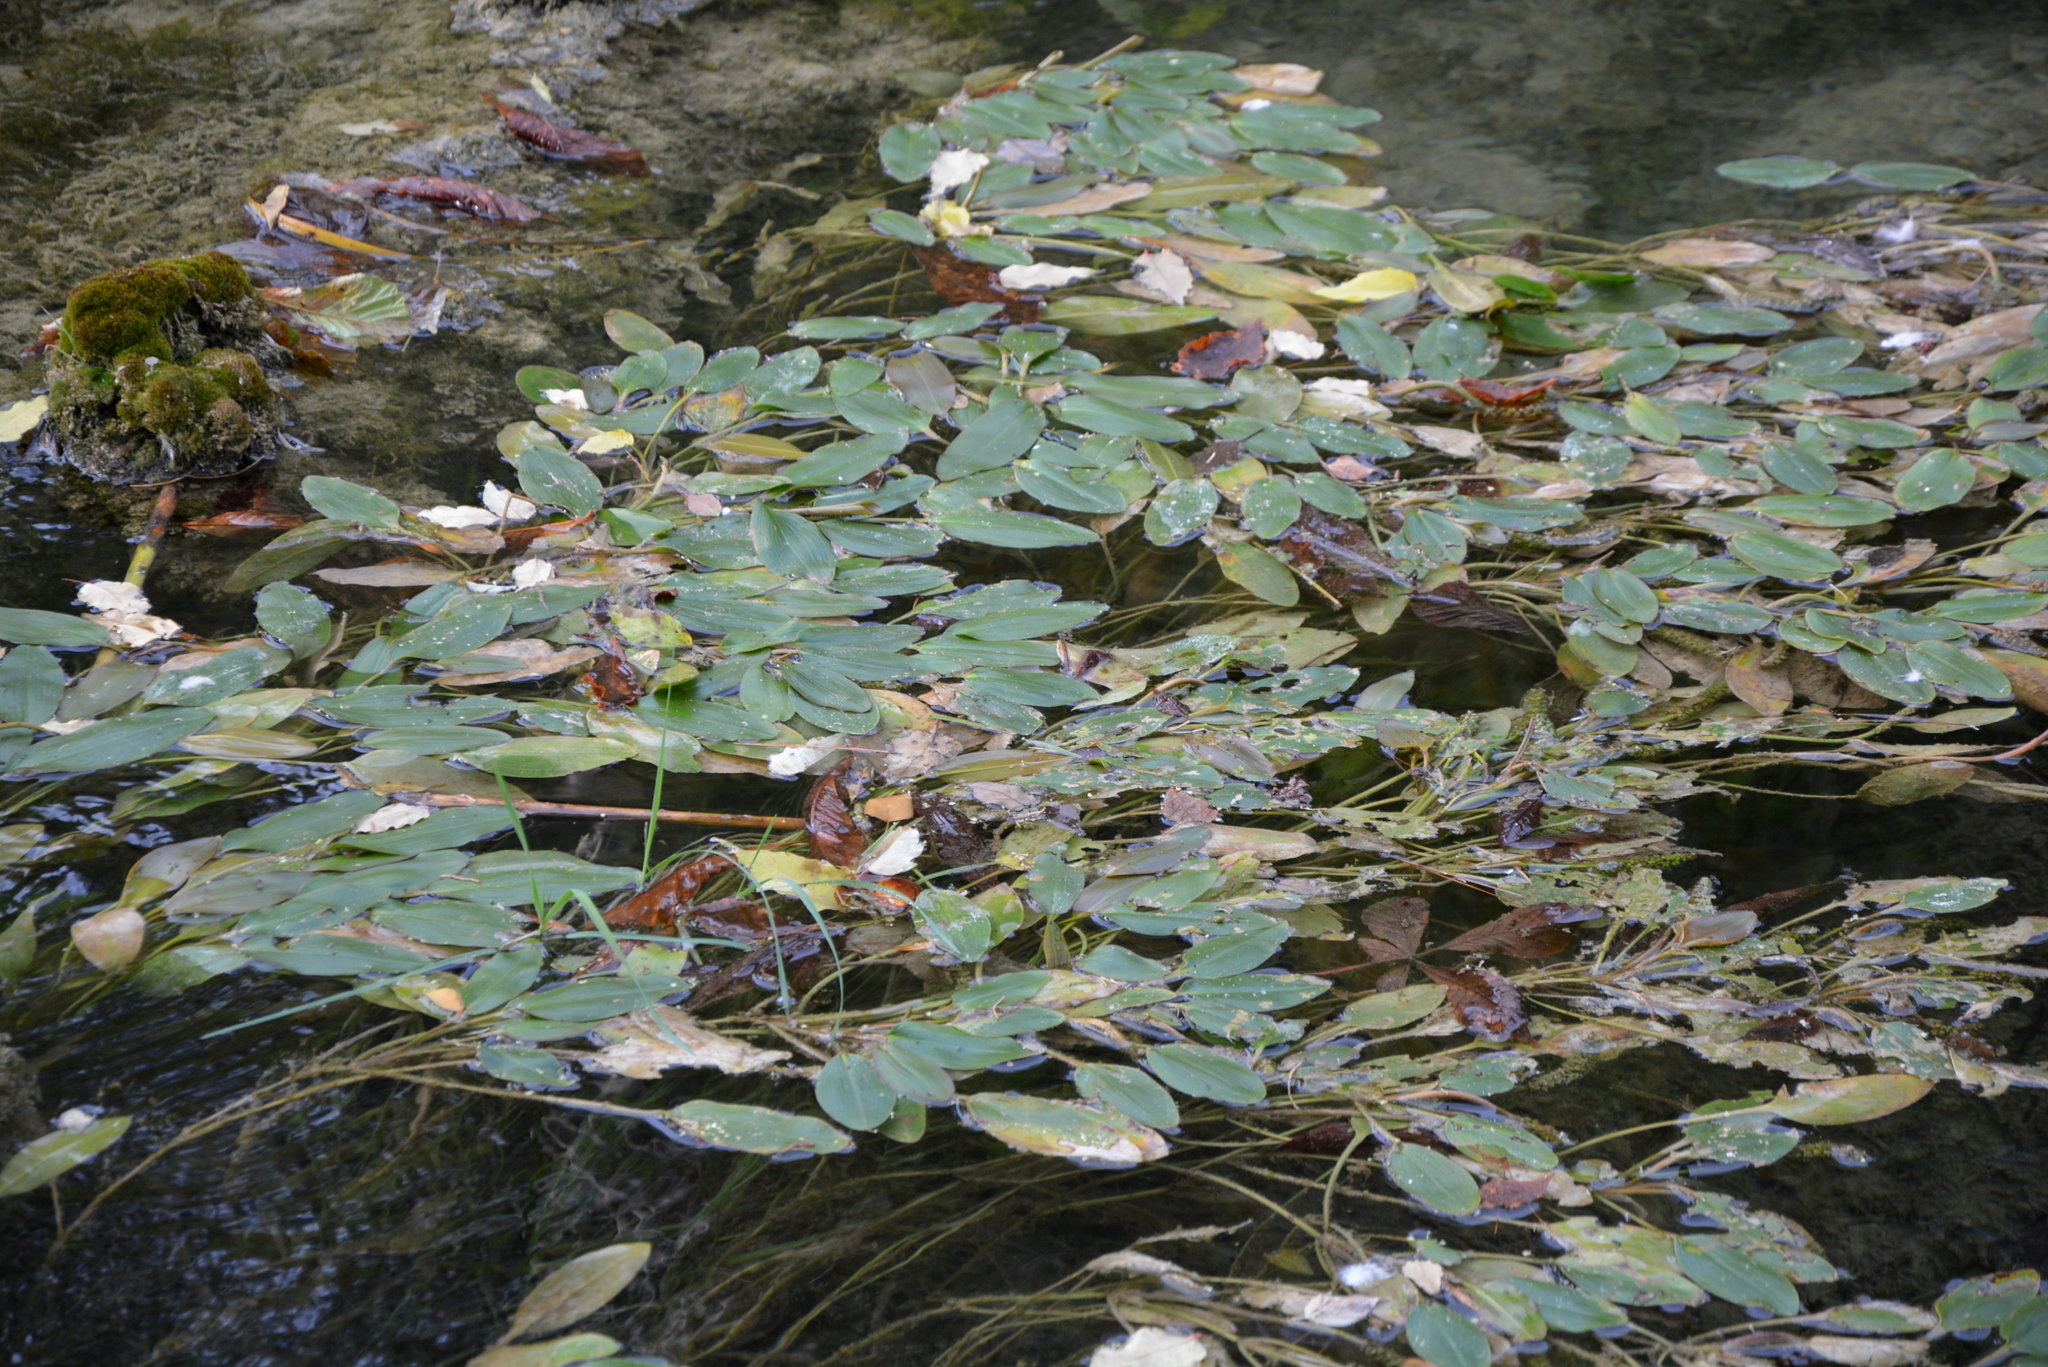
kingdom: Plantae
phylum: Tracheophyta
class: Liliopsida
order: Alismatales
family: Potamogetonaceae
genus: Potamogeton
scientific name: Potamogeton nodosus
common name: Loddon pondweed
